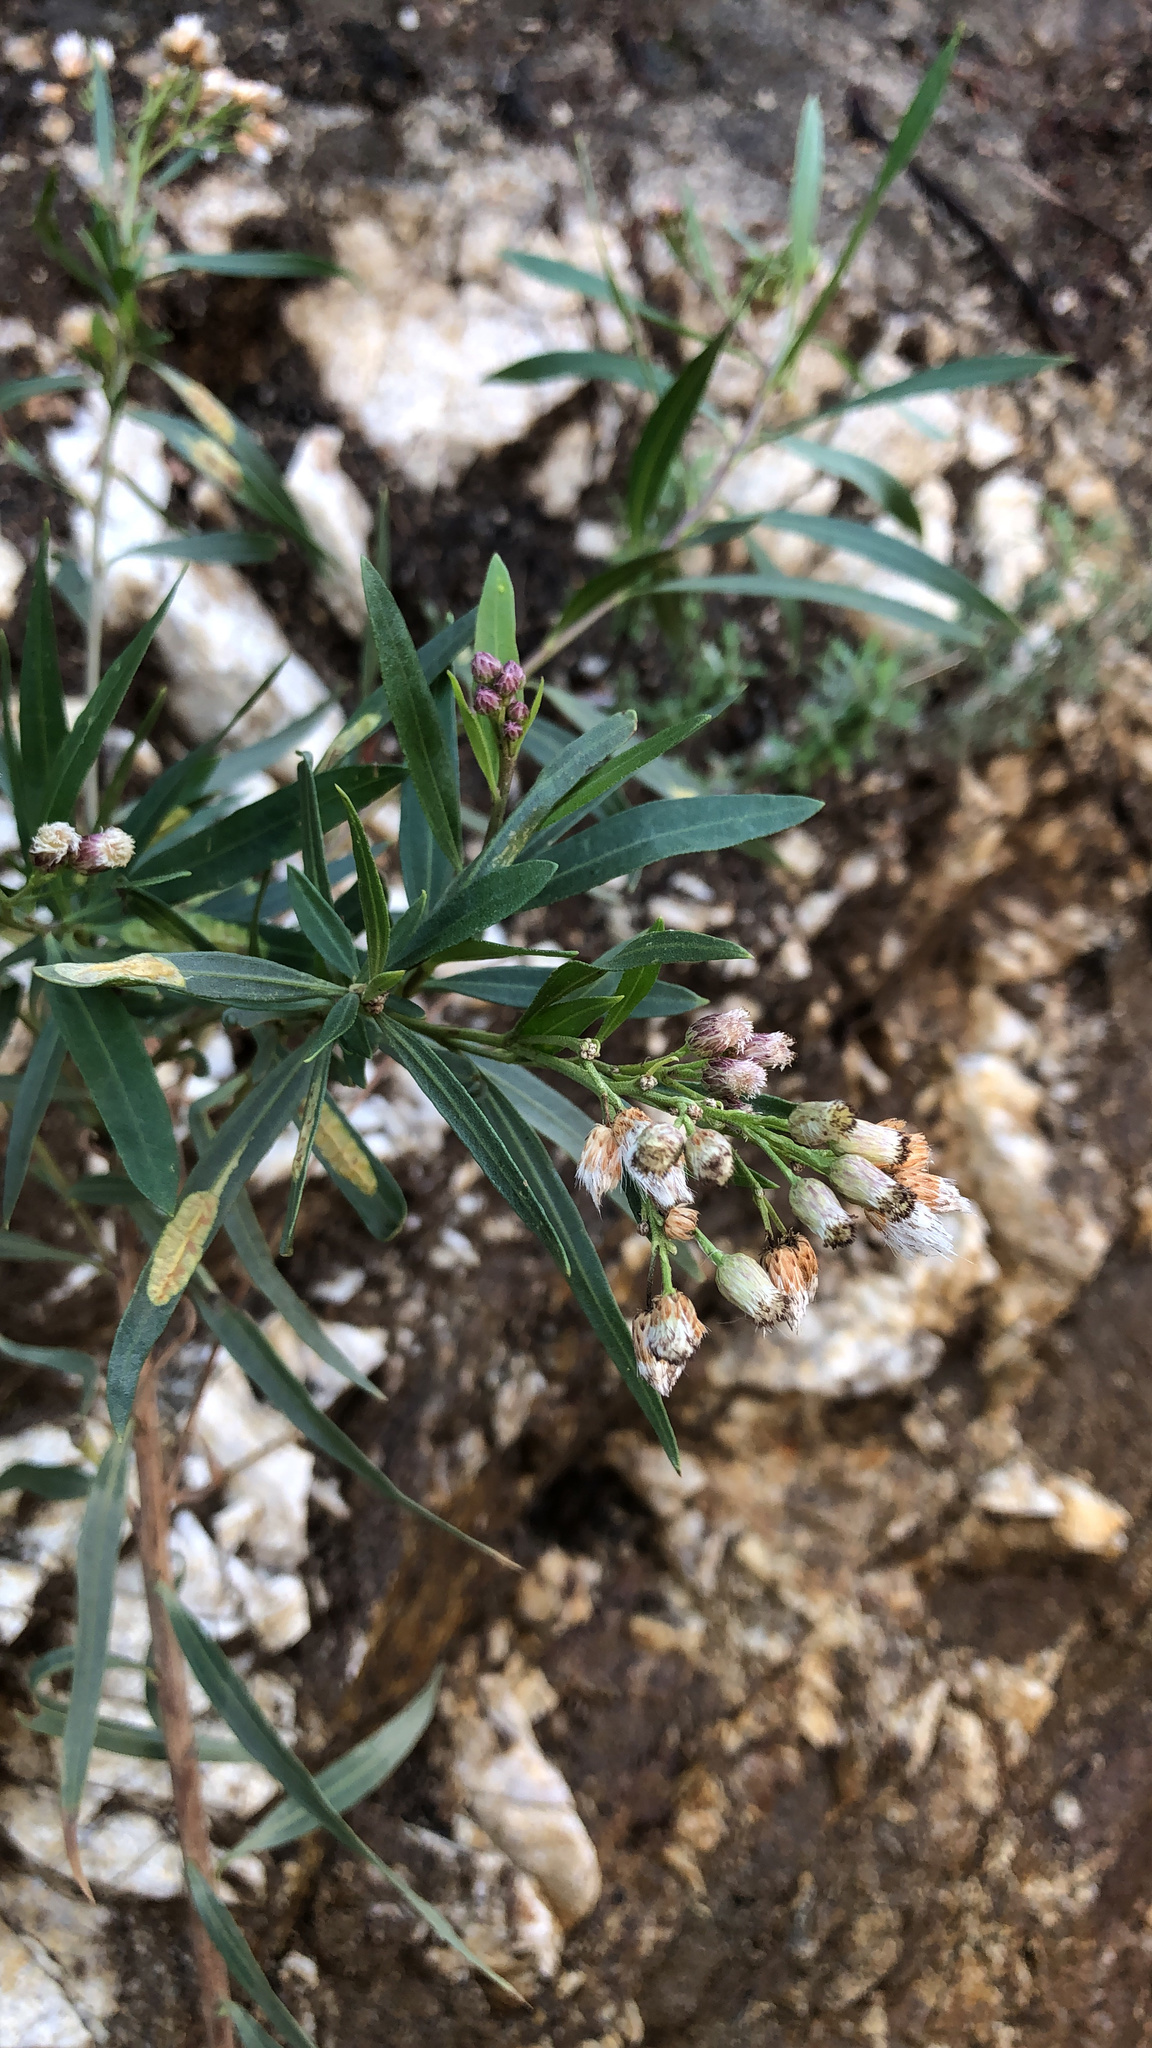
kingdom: Plantae
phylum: Tracheophyta
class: Magnoliopsida
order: Asterales
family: Asteraceae
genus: Baccharis
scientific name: Baccharis salicifolia
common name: Sticky baccharis
